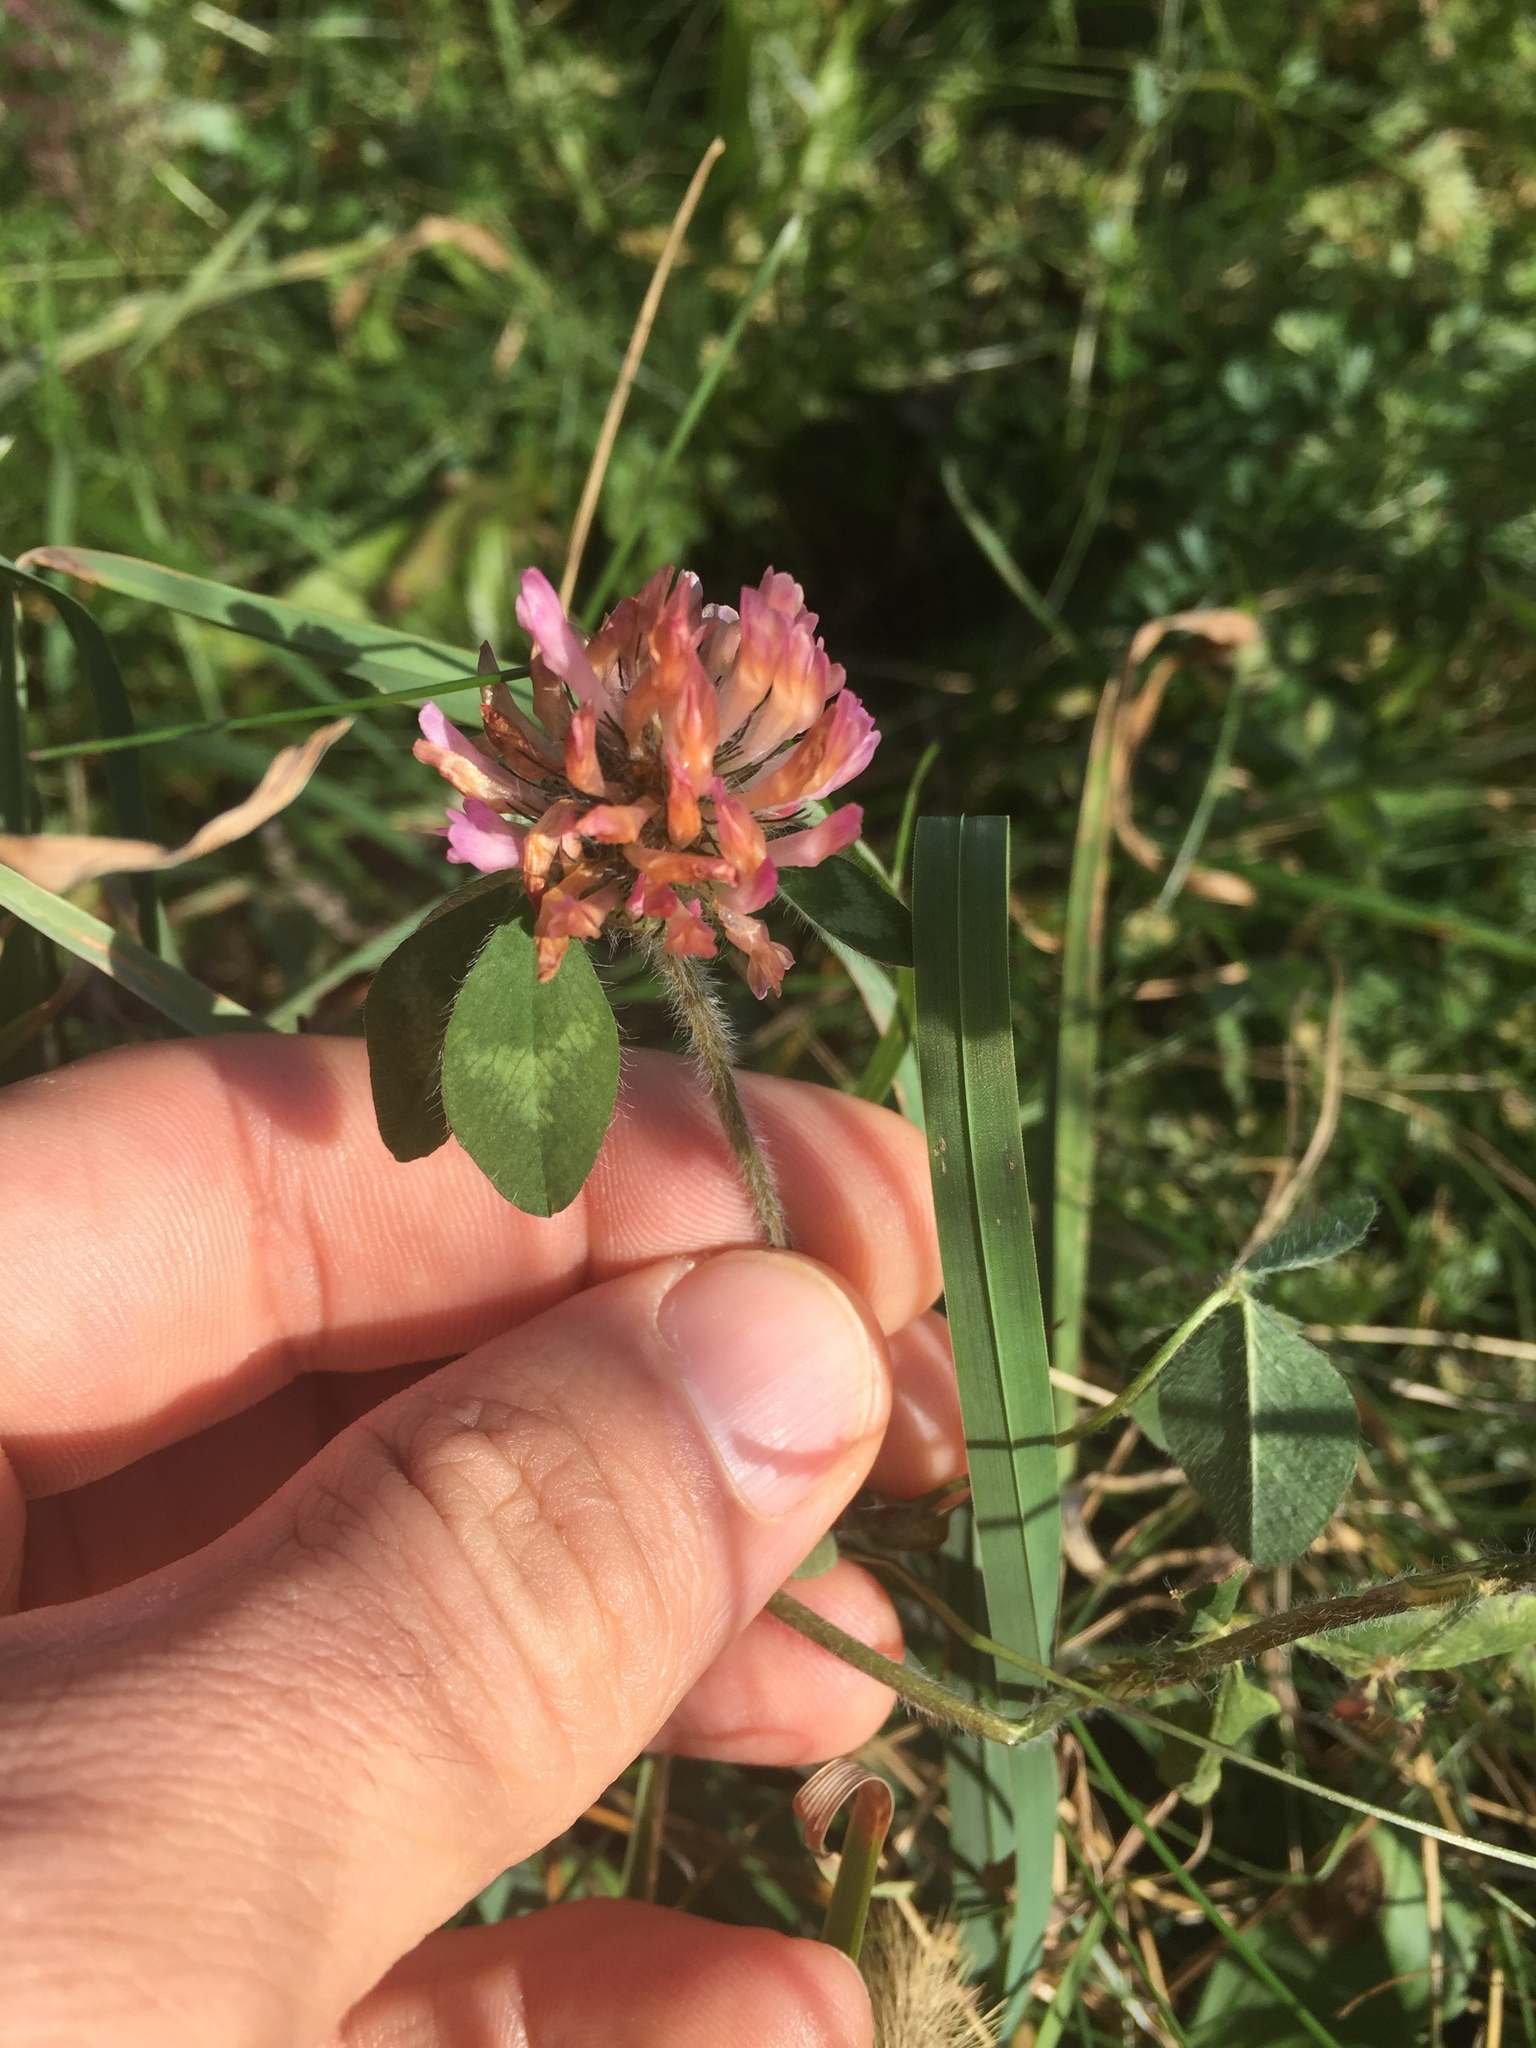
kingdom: Plantae
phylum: Tracheophyta
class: Magnoliopsida
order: Fabales
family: Fabaceae
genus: Trifolium
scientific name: Trifolium pratense
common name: Red clover
